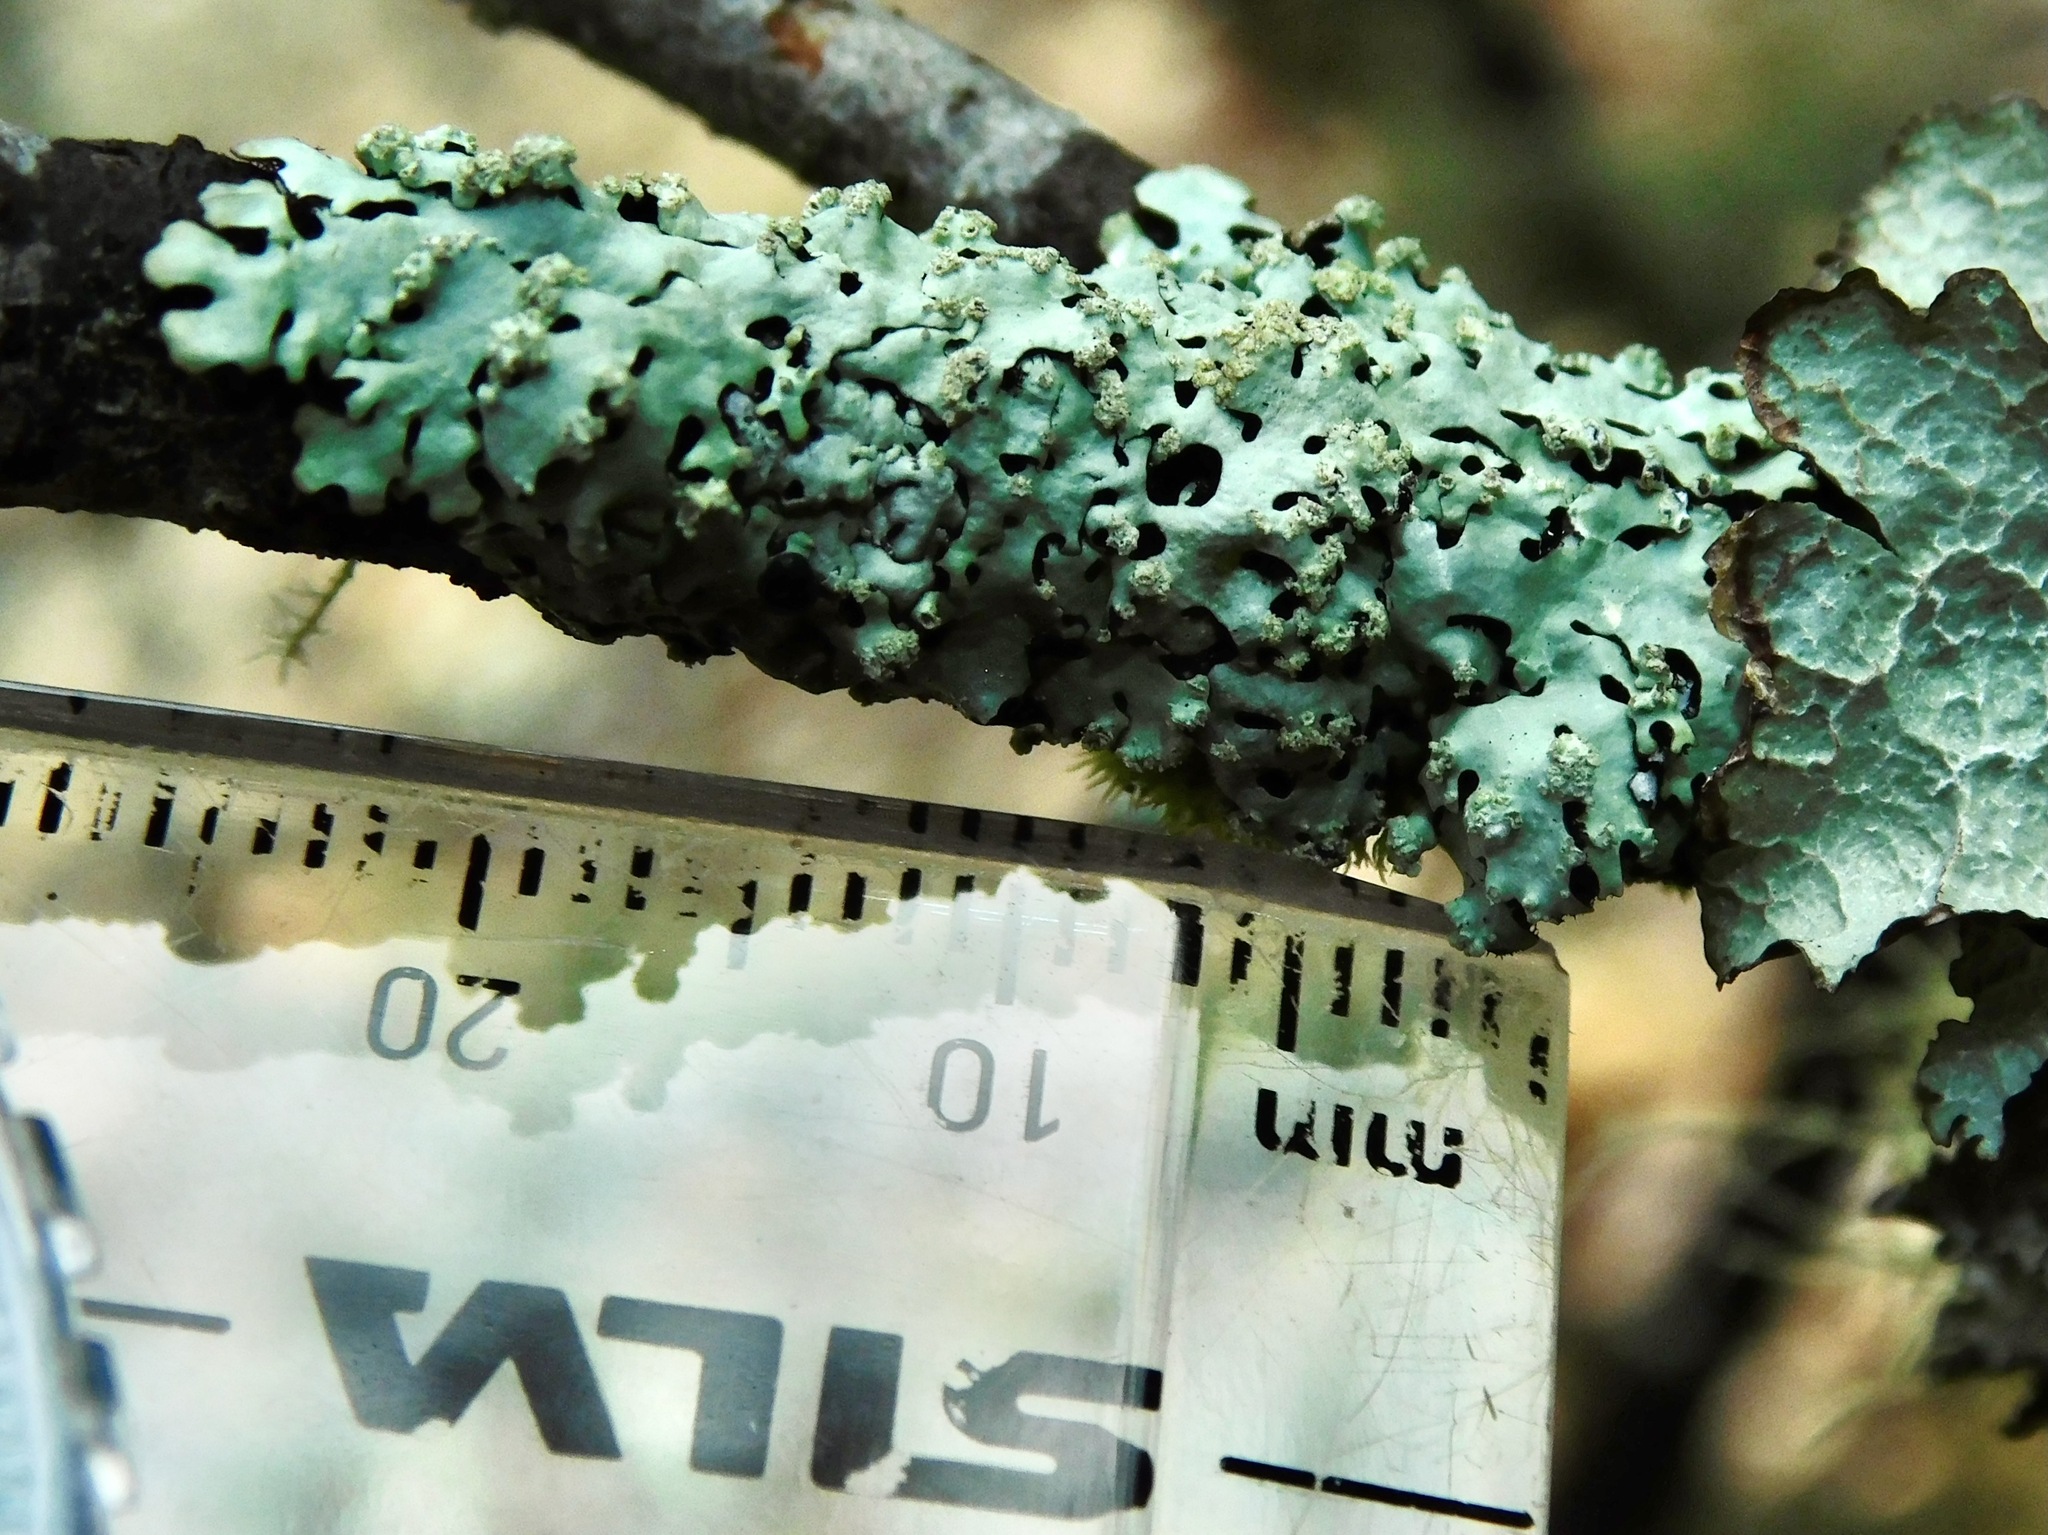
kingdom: Fungi
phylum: Ascomycota
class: Lecanoromycetes
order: Lecanorales
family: Parmeliaceae
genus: Hypotrachyna
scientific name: Hypotrachyna lividescens
